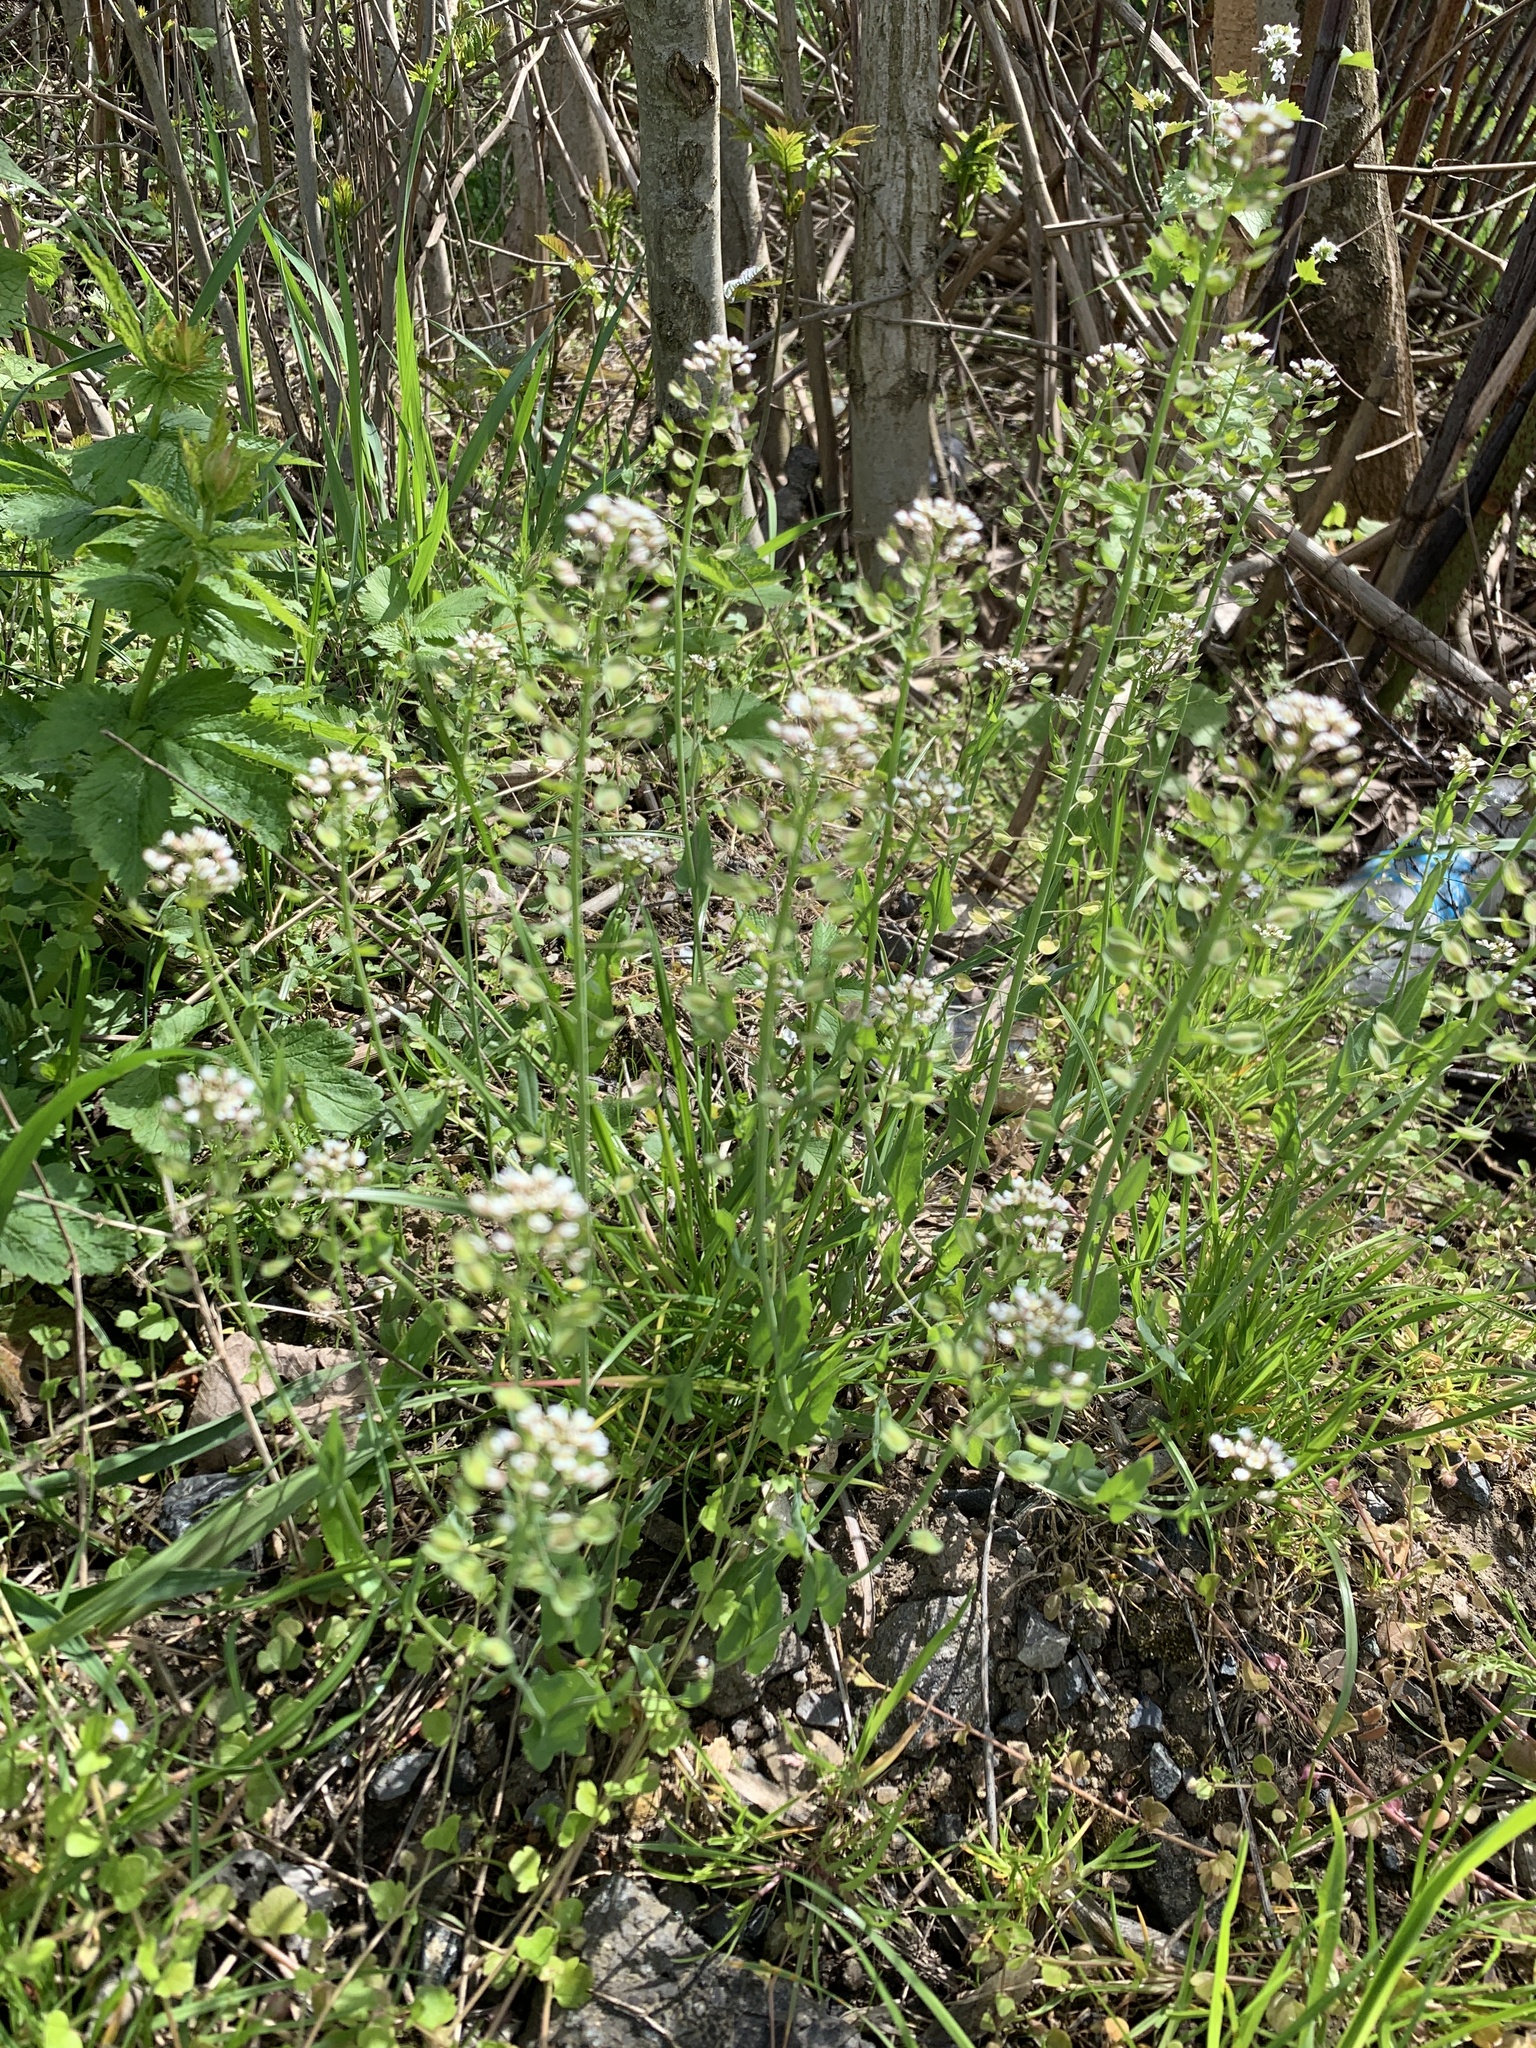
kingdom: Plantae
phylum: Tracheophyta
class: Magnoliopsida
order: Brassicales
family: Brassicaceae
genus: Noccaea
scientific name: Noccaea perfoliata
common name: Perfoliate pennycress
